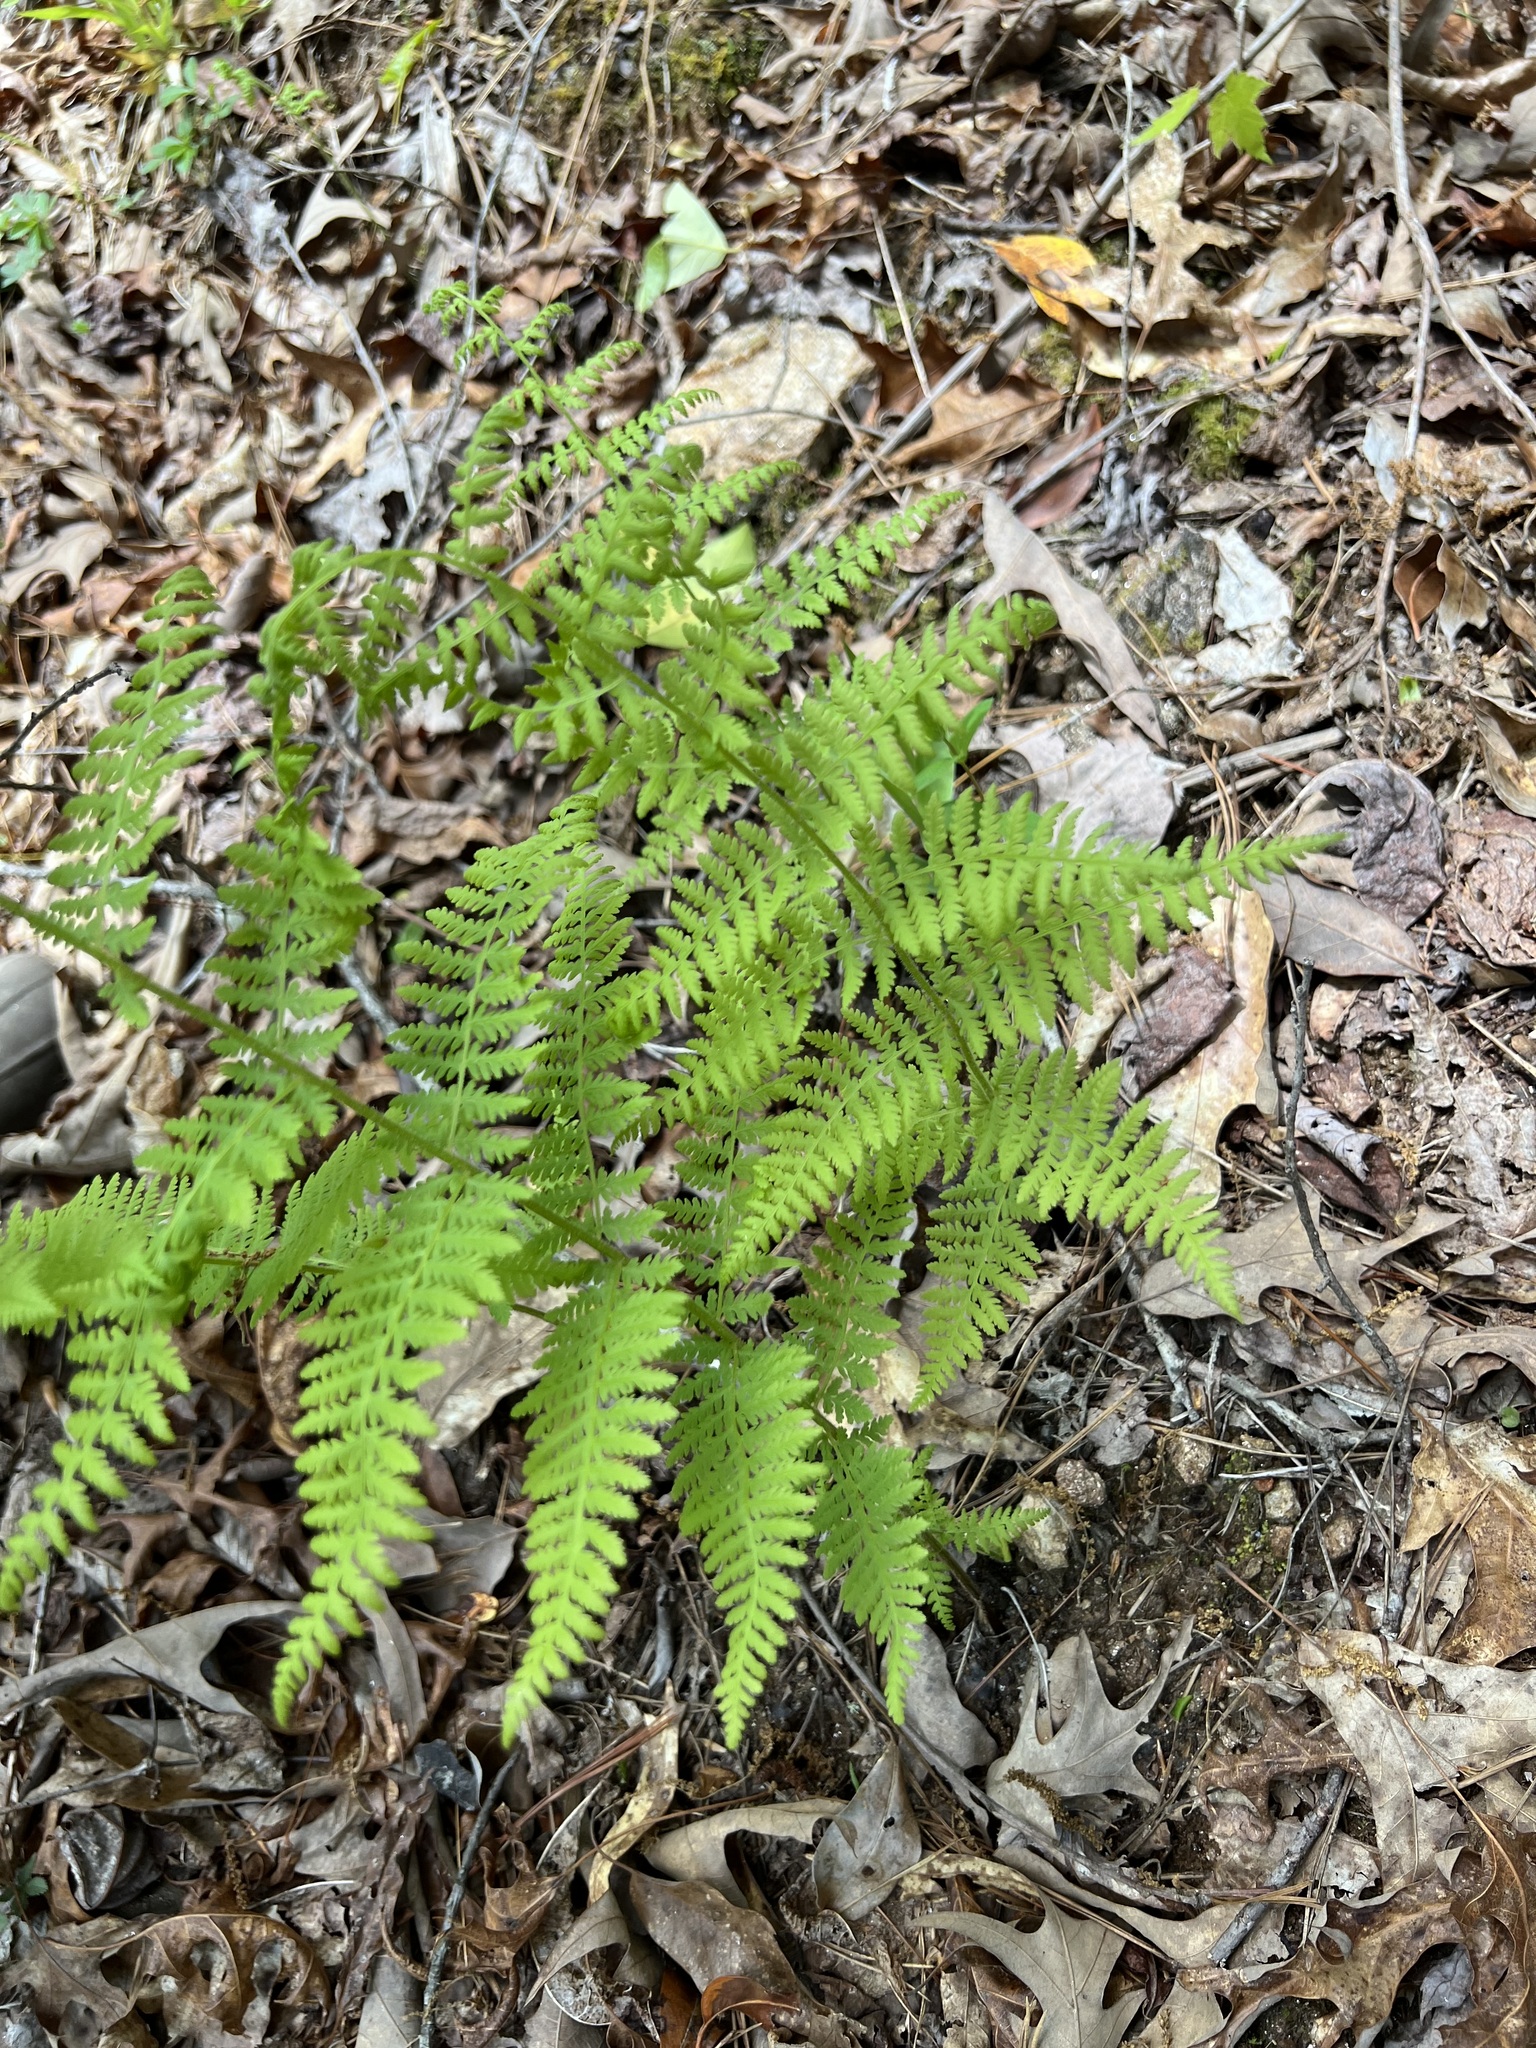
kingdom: Plantae
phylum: Tracheophyta
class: Polypodiopsida
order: Polypodiales
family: Dennstaedtiaceae
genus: Sitobolium
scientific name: Sitobolium punctilobum
